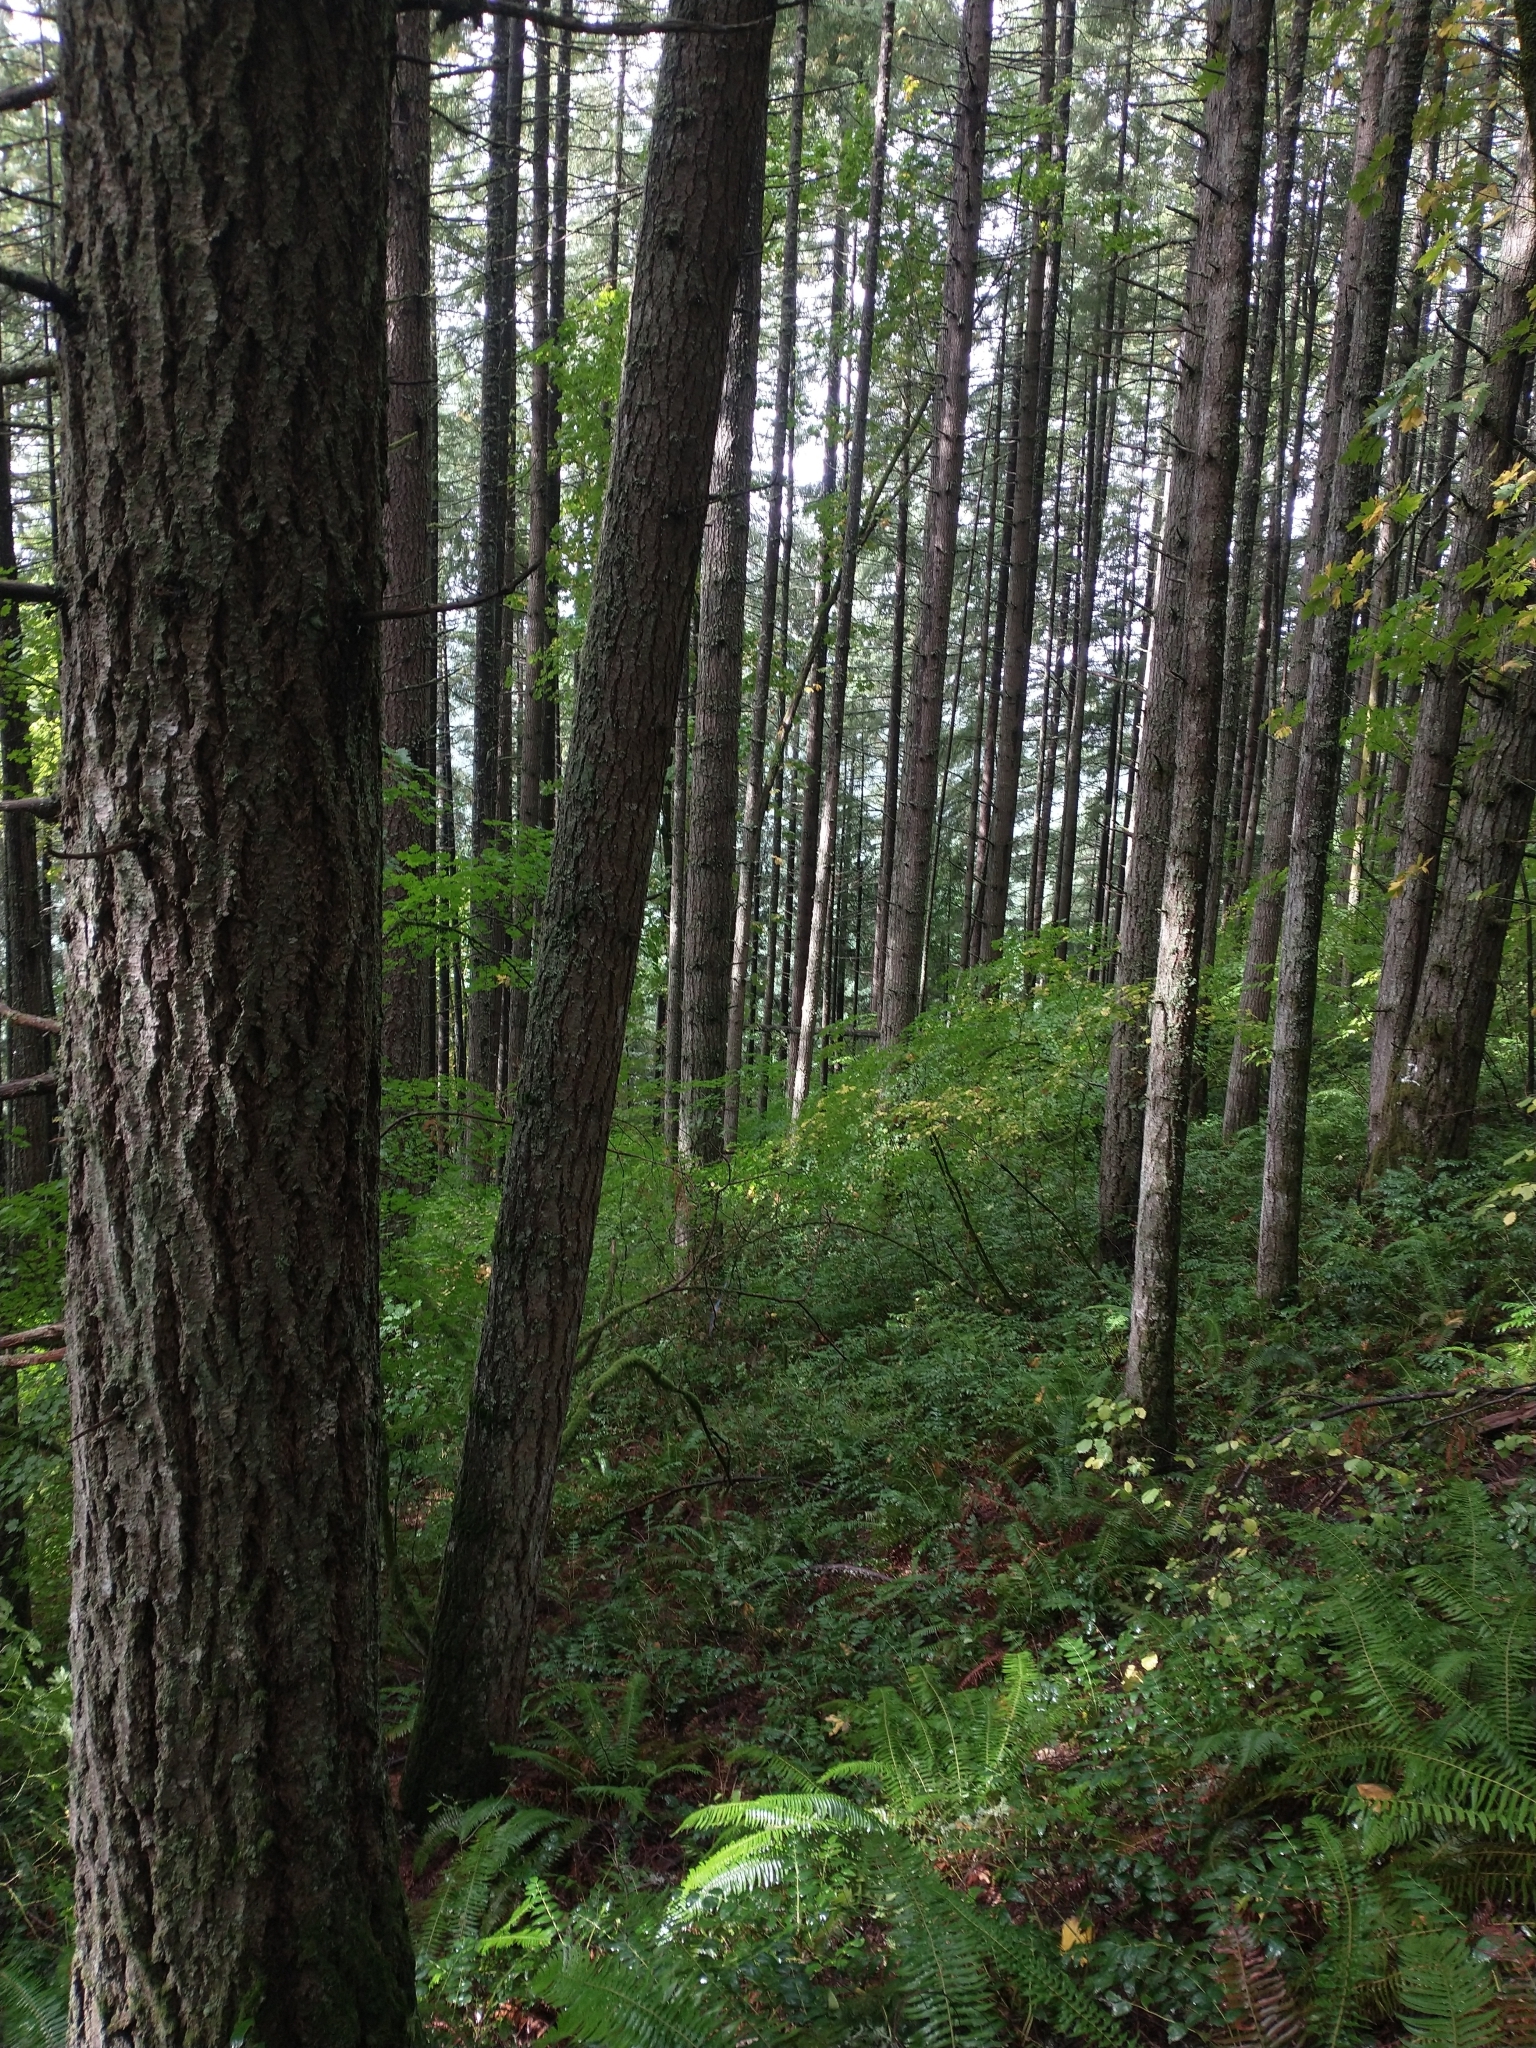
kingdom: Plantae
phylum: Tracheophyta
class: Pinopsida
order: Pinales
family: Pinaceae
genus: Pseudotsuga
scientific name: Pseudotsuga menziesii
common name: Douglas fir
